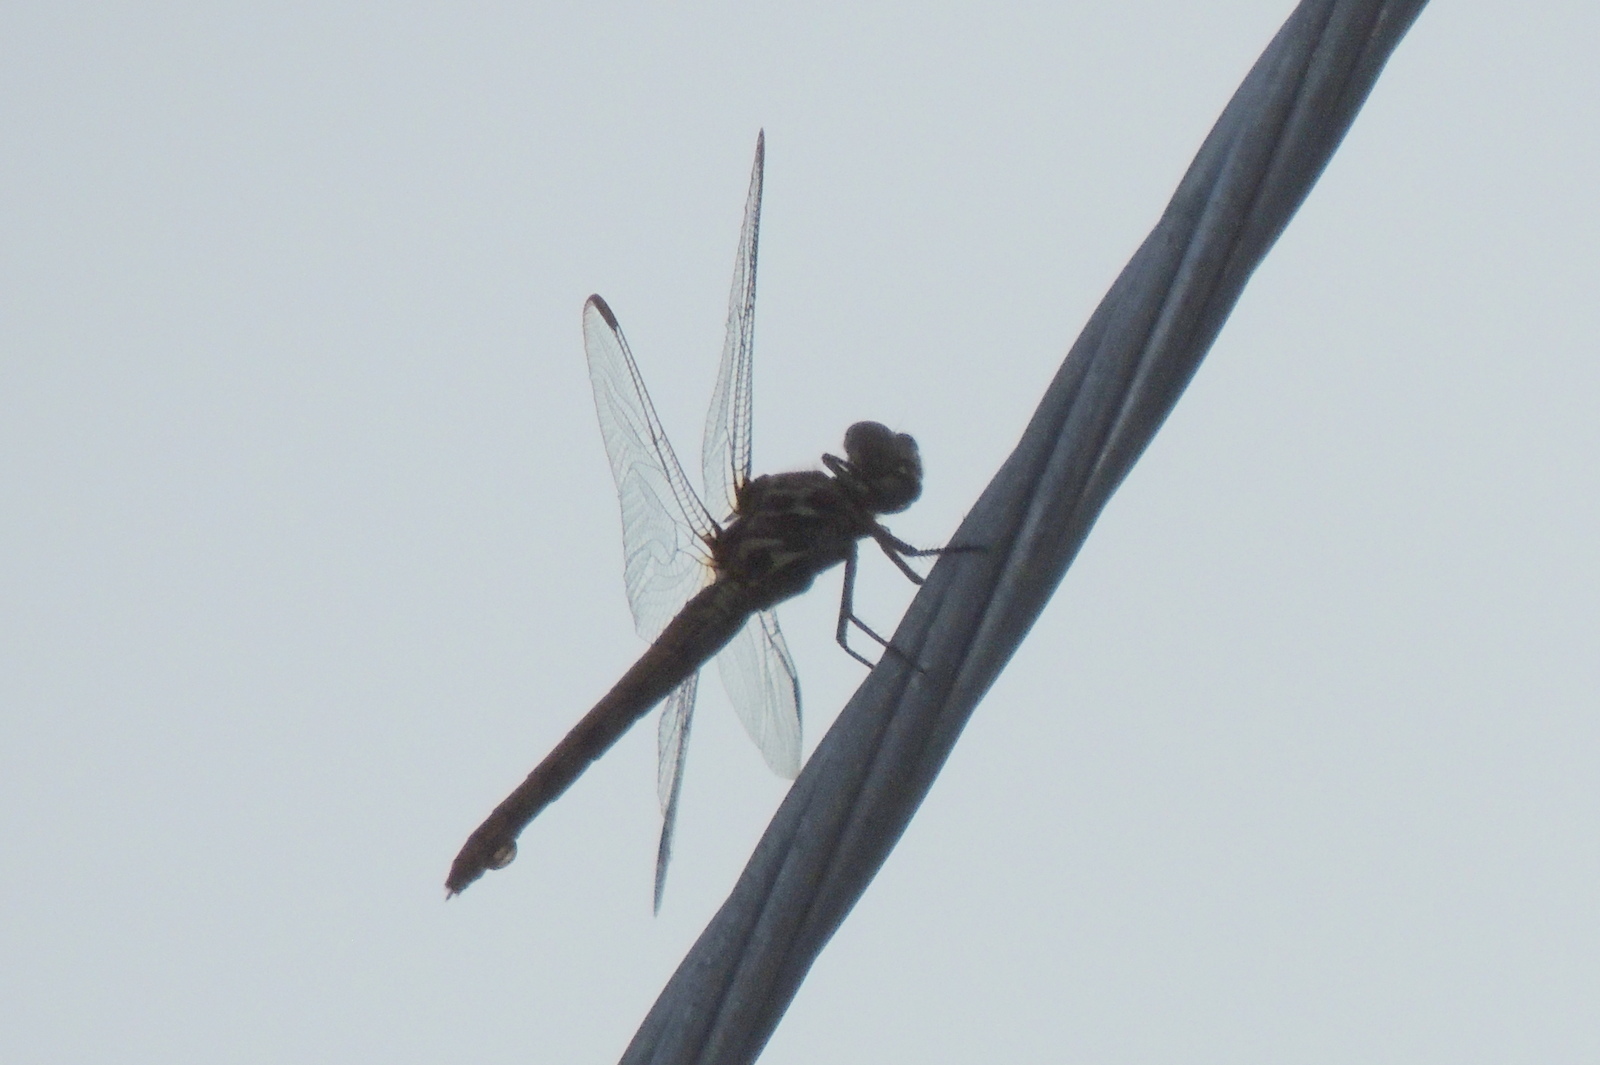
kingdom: Animalia
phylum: Arthropoda
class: Insecta
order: Odonata
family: Libellulidae
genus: Orthemis
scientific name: Orthemis ferruginea
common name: Roseate skimmer
